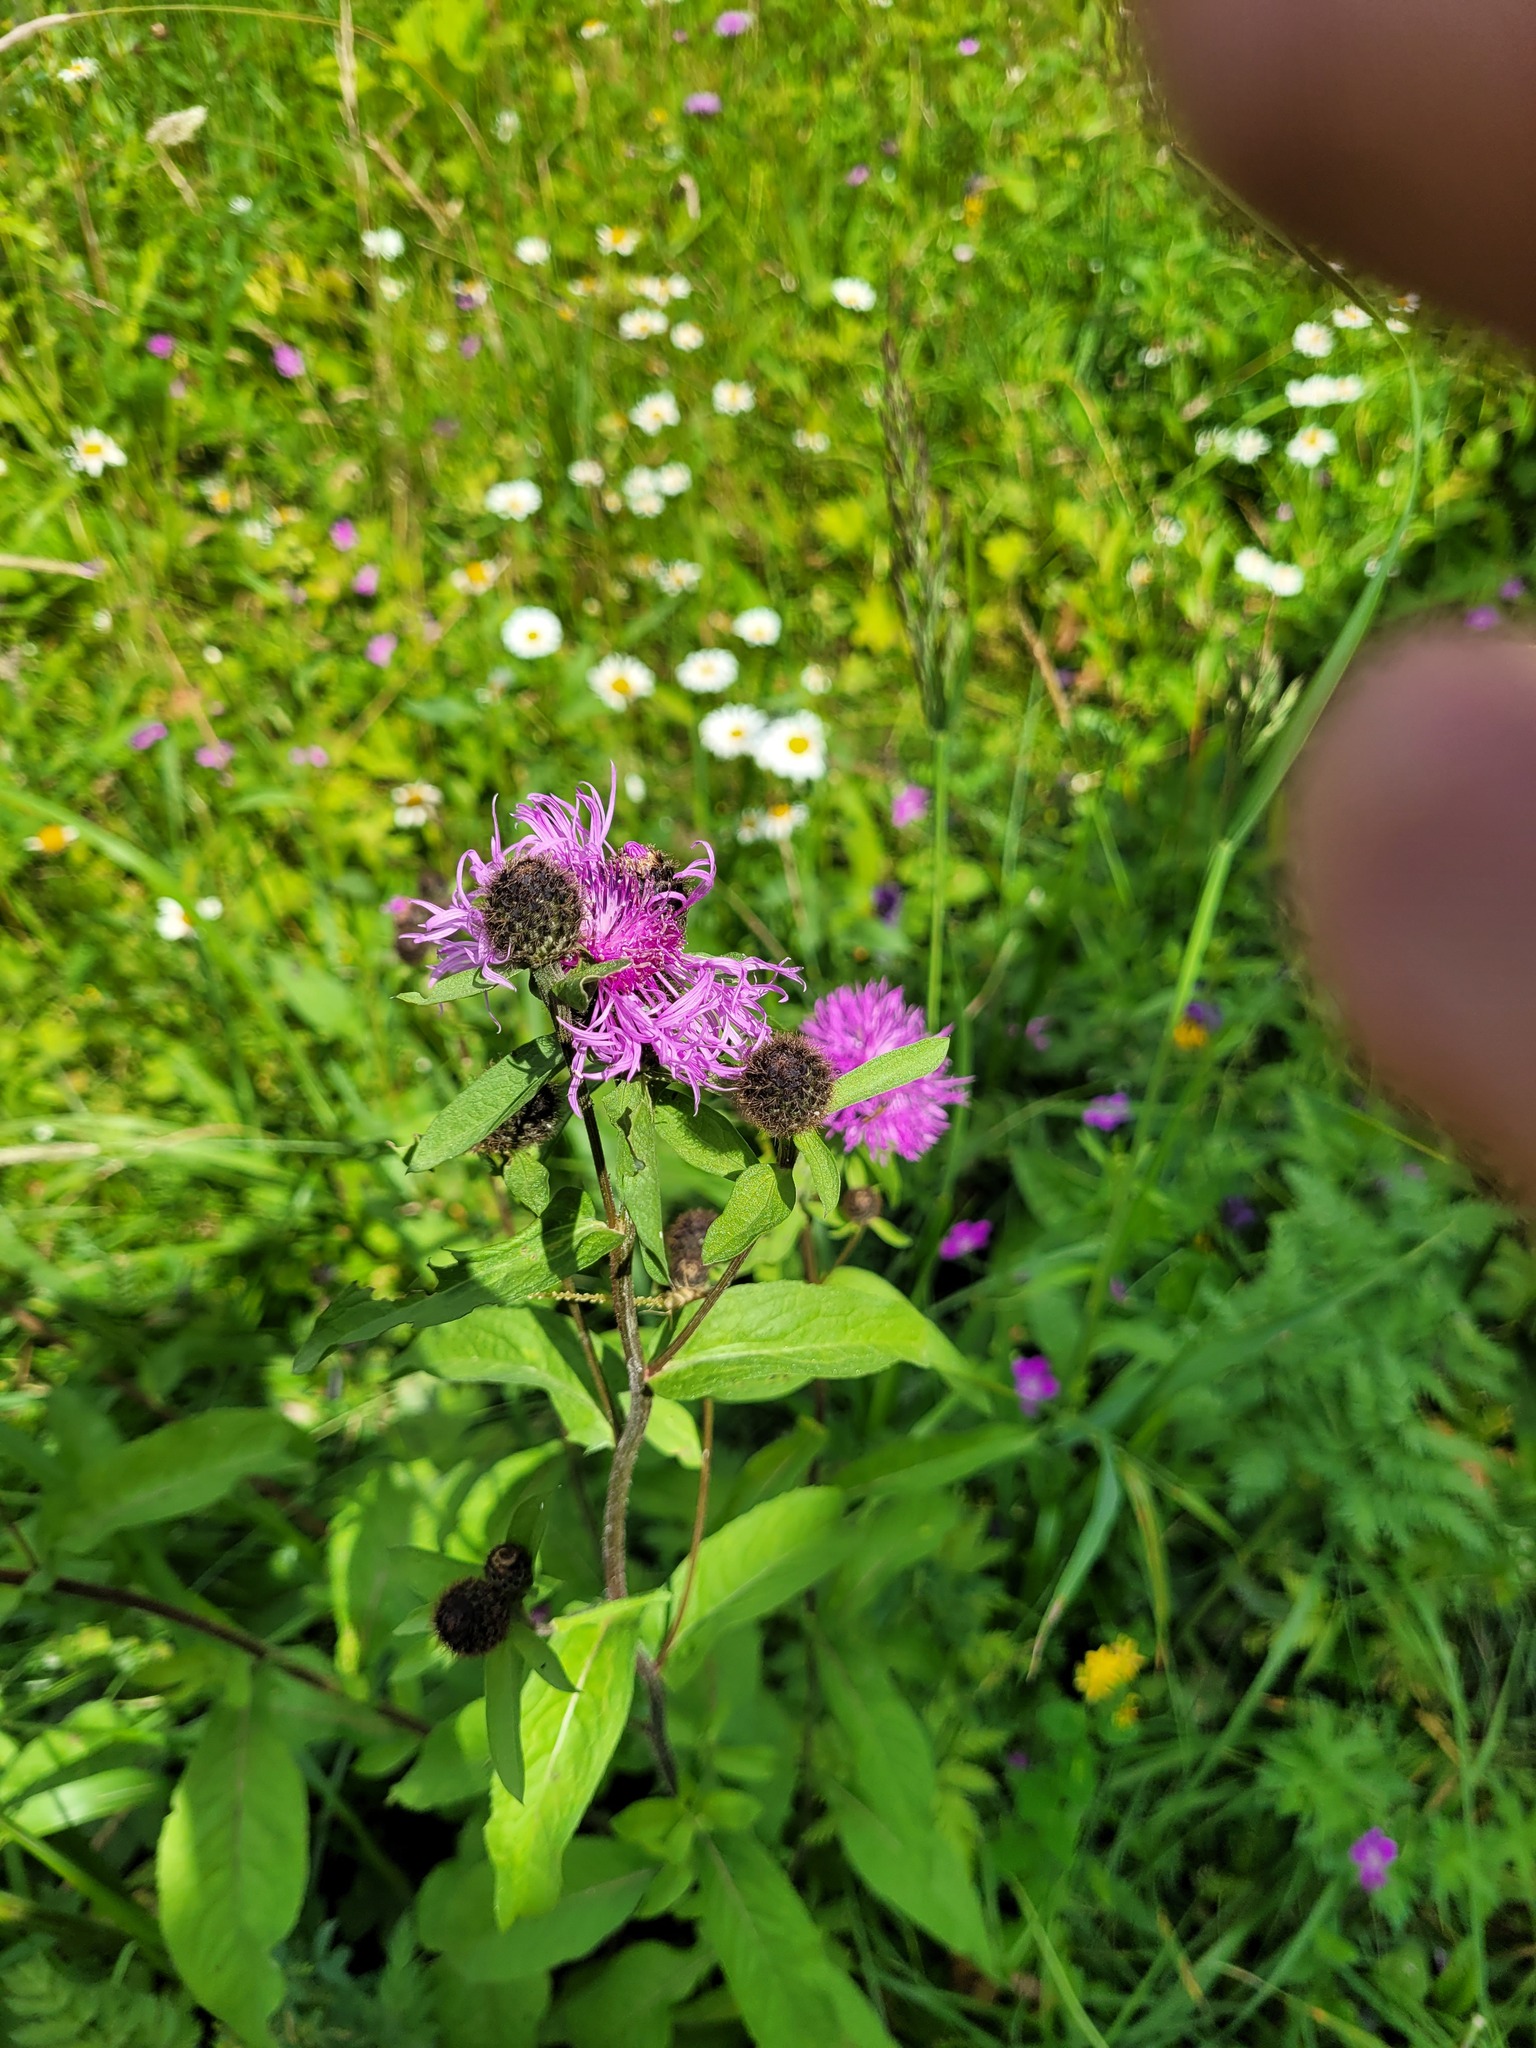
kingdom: Plantae
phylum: Tracheophyta
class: Magnoliopsida
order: Asterales
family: Asteraceae
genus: Centaurea
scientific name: Centaurea phrygia
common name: Wig knapweed
